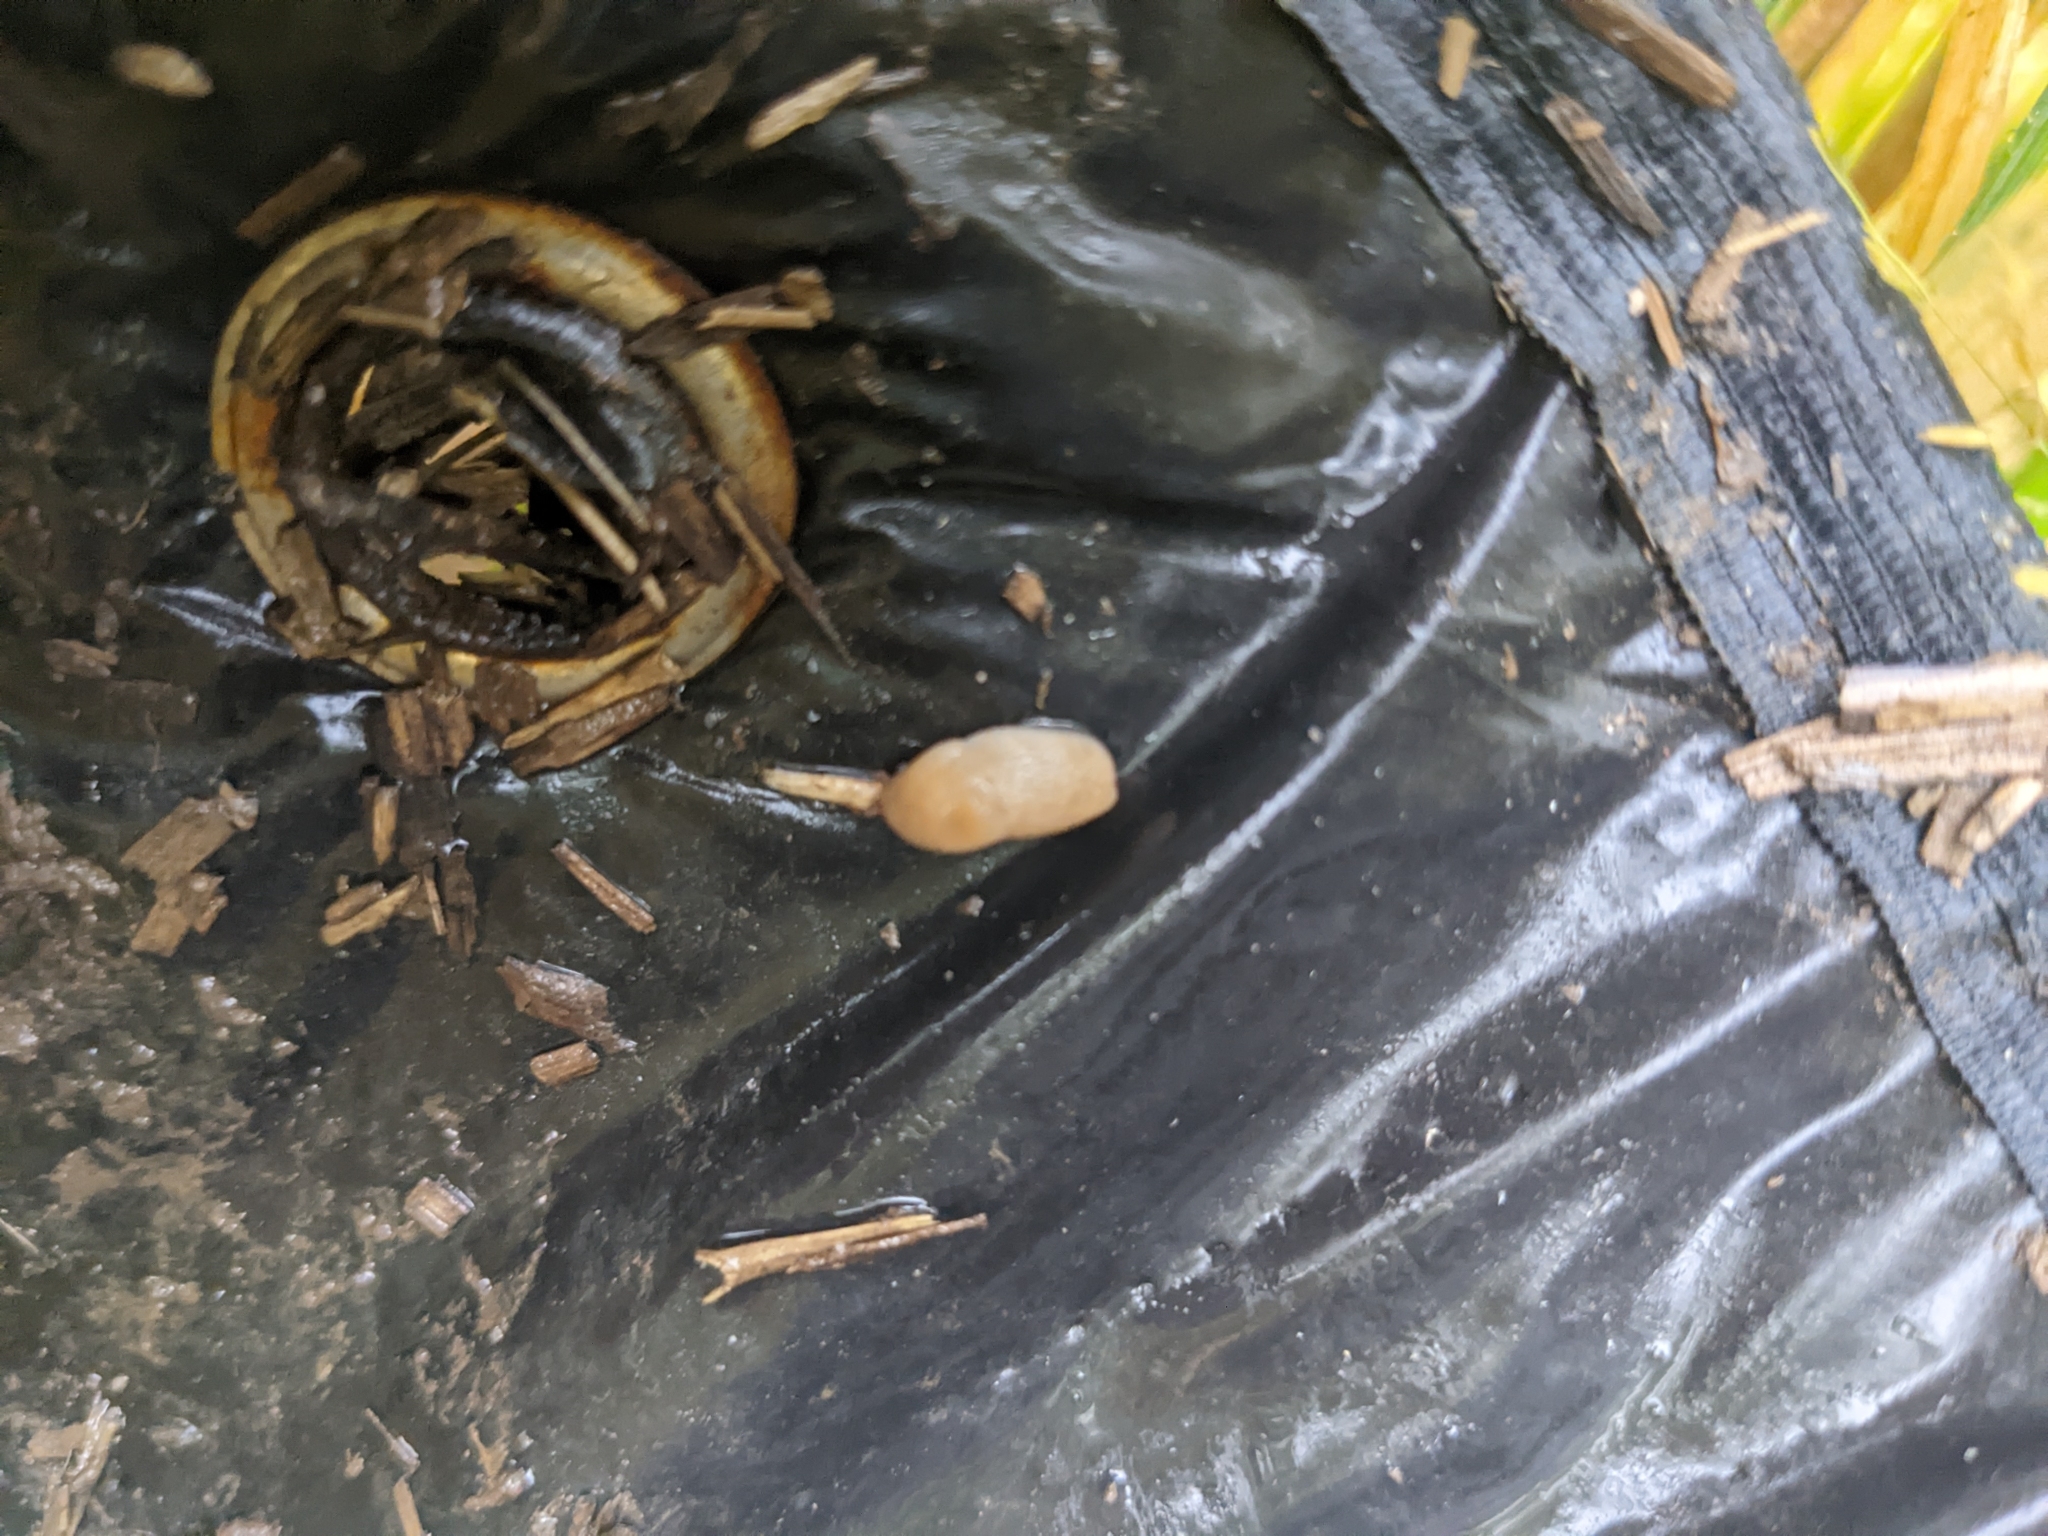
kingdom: Animalia
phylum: Mollusca
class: Gastropoda
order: Stylommatophora
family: Agriolimacidae
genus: Deroceras
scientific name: Deroceras reticulatum
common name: Gray field slug
